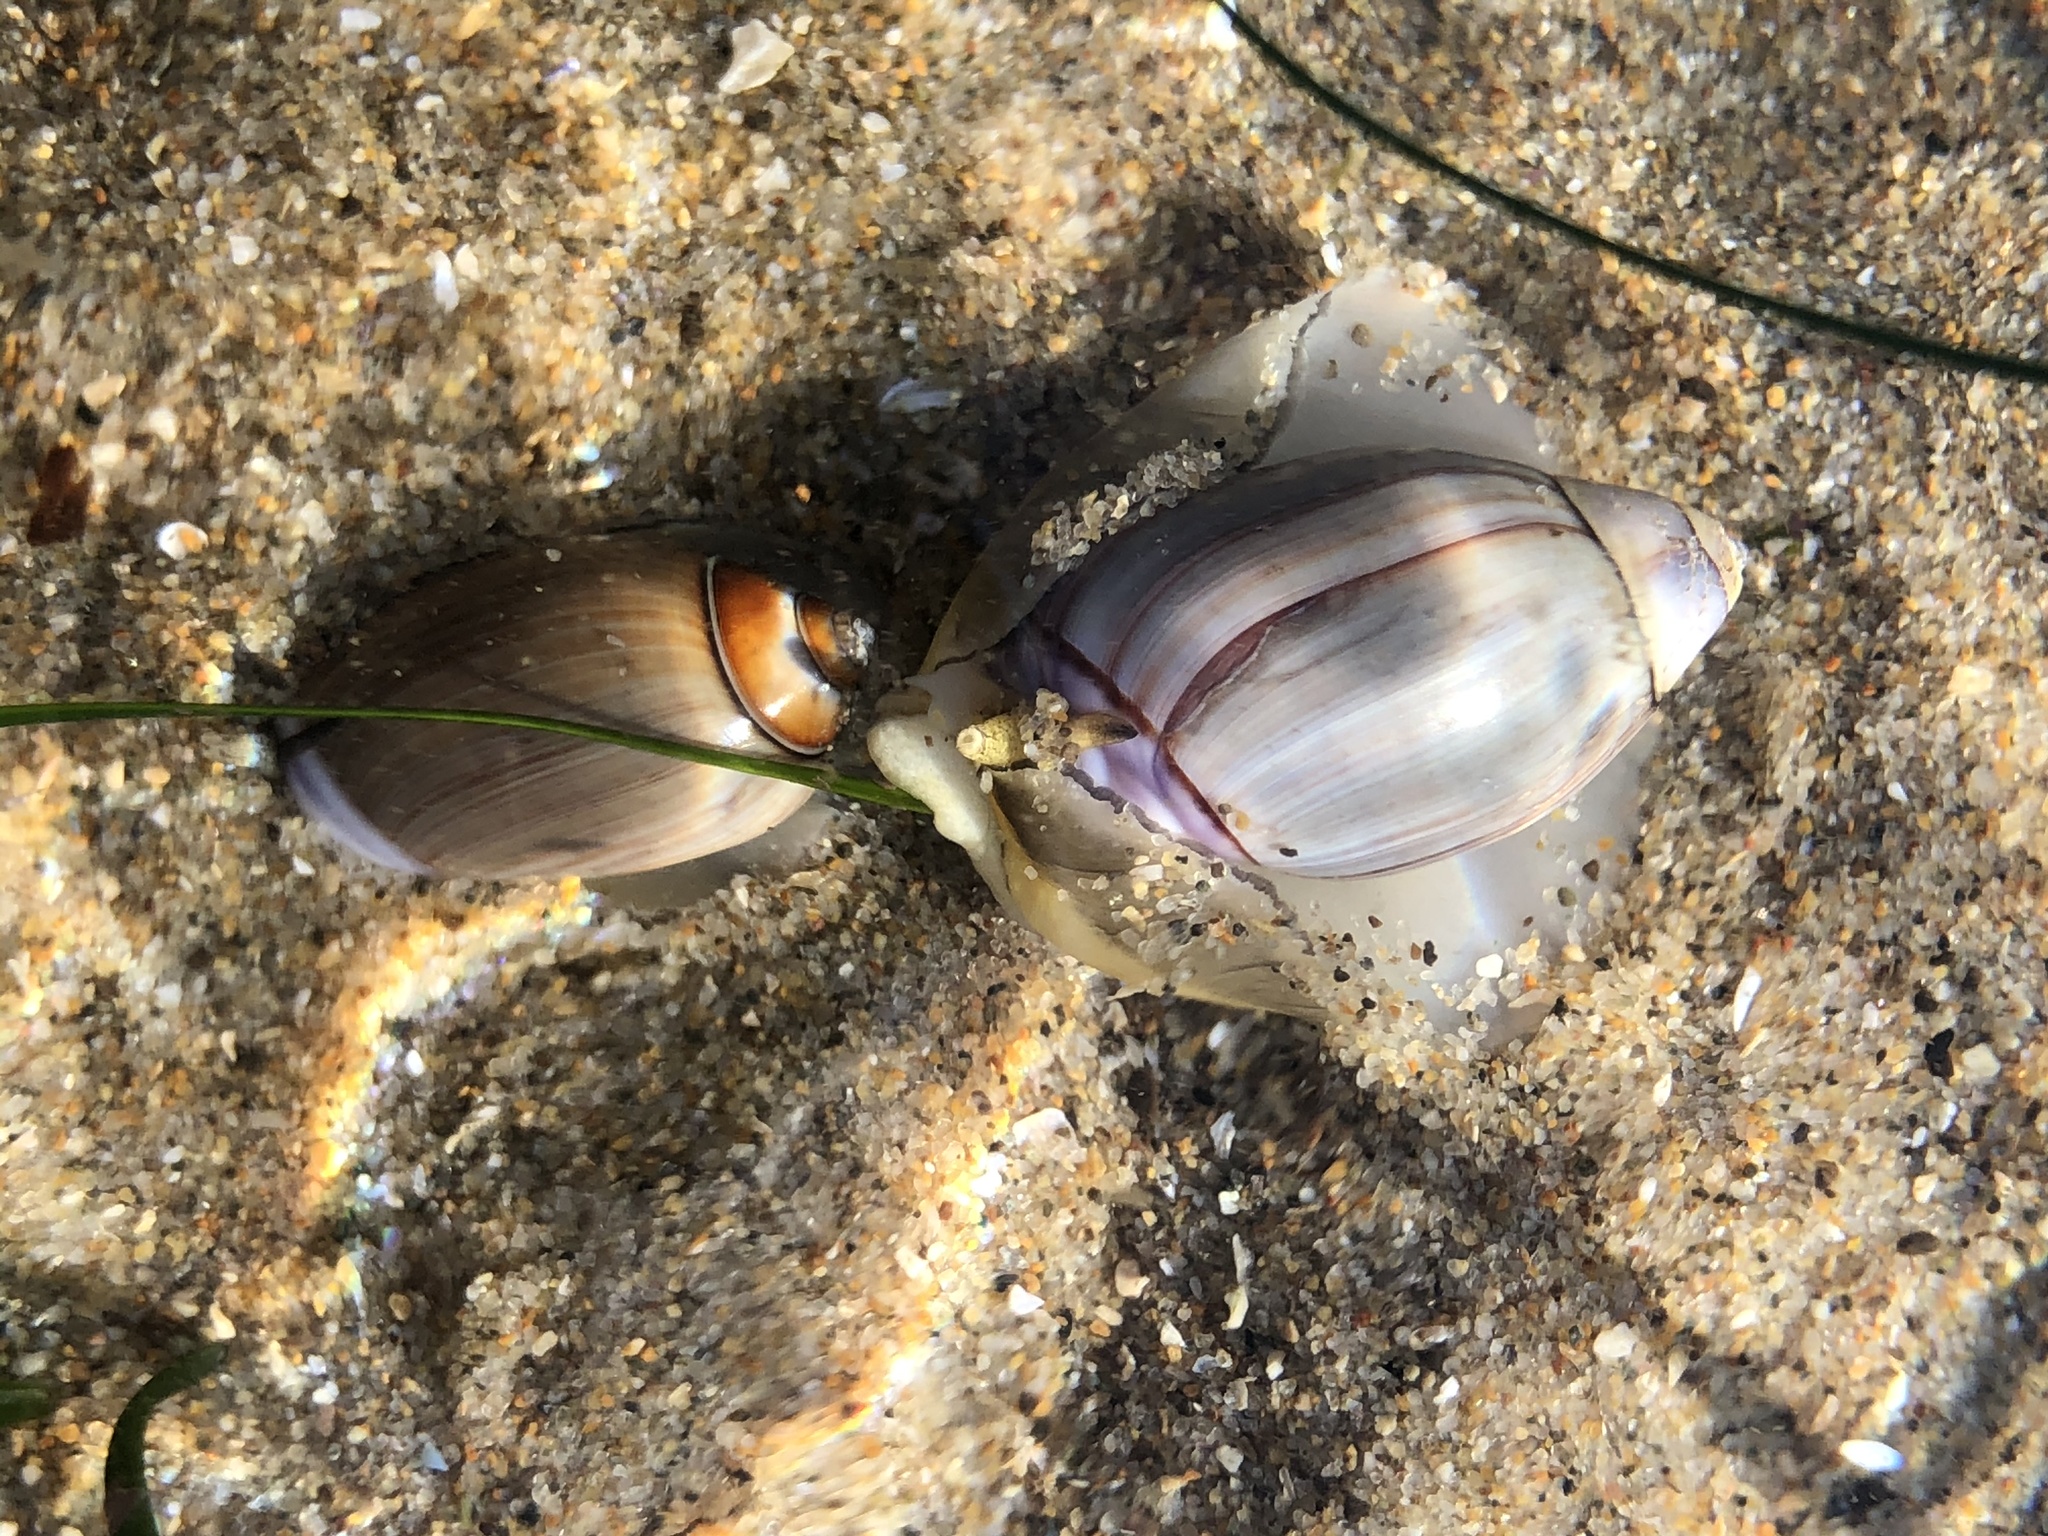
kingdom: Animalia
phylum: Mollusca
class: Gastropoda
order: Neogastropoda
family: Olividae
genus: Callianax
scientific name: Callianax biplicata
